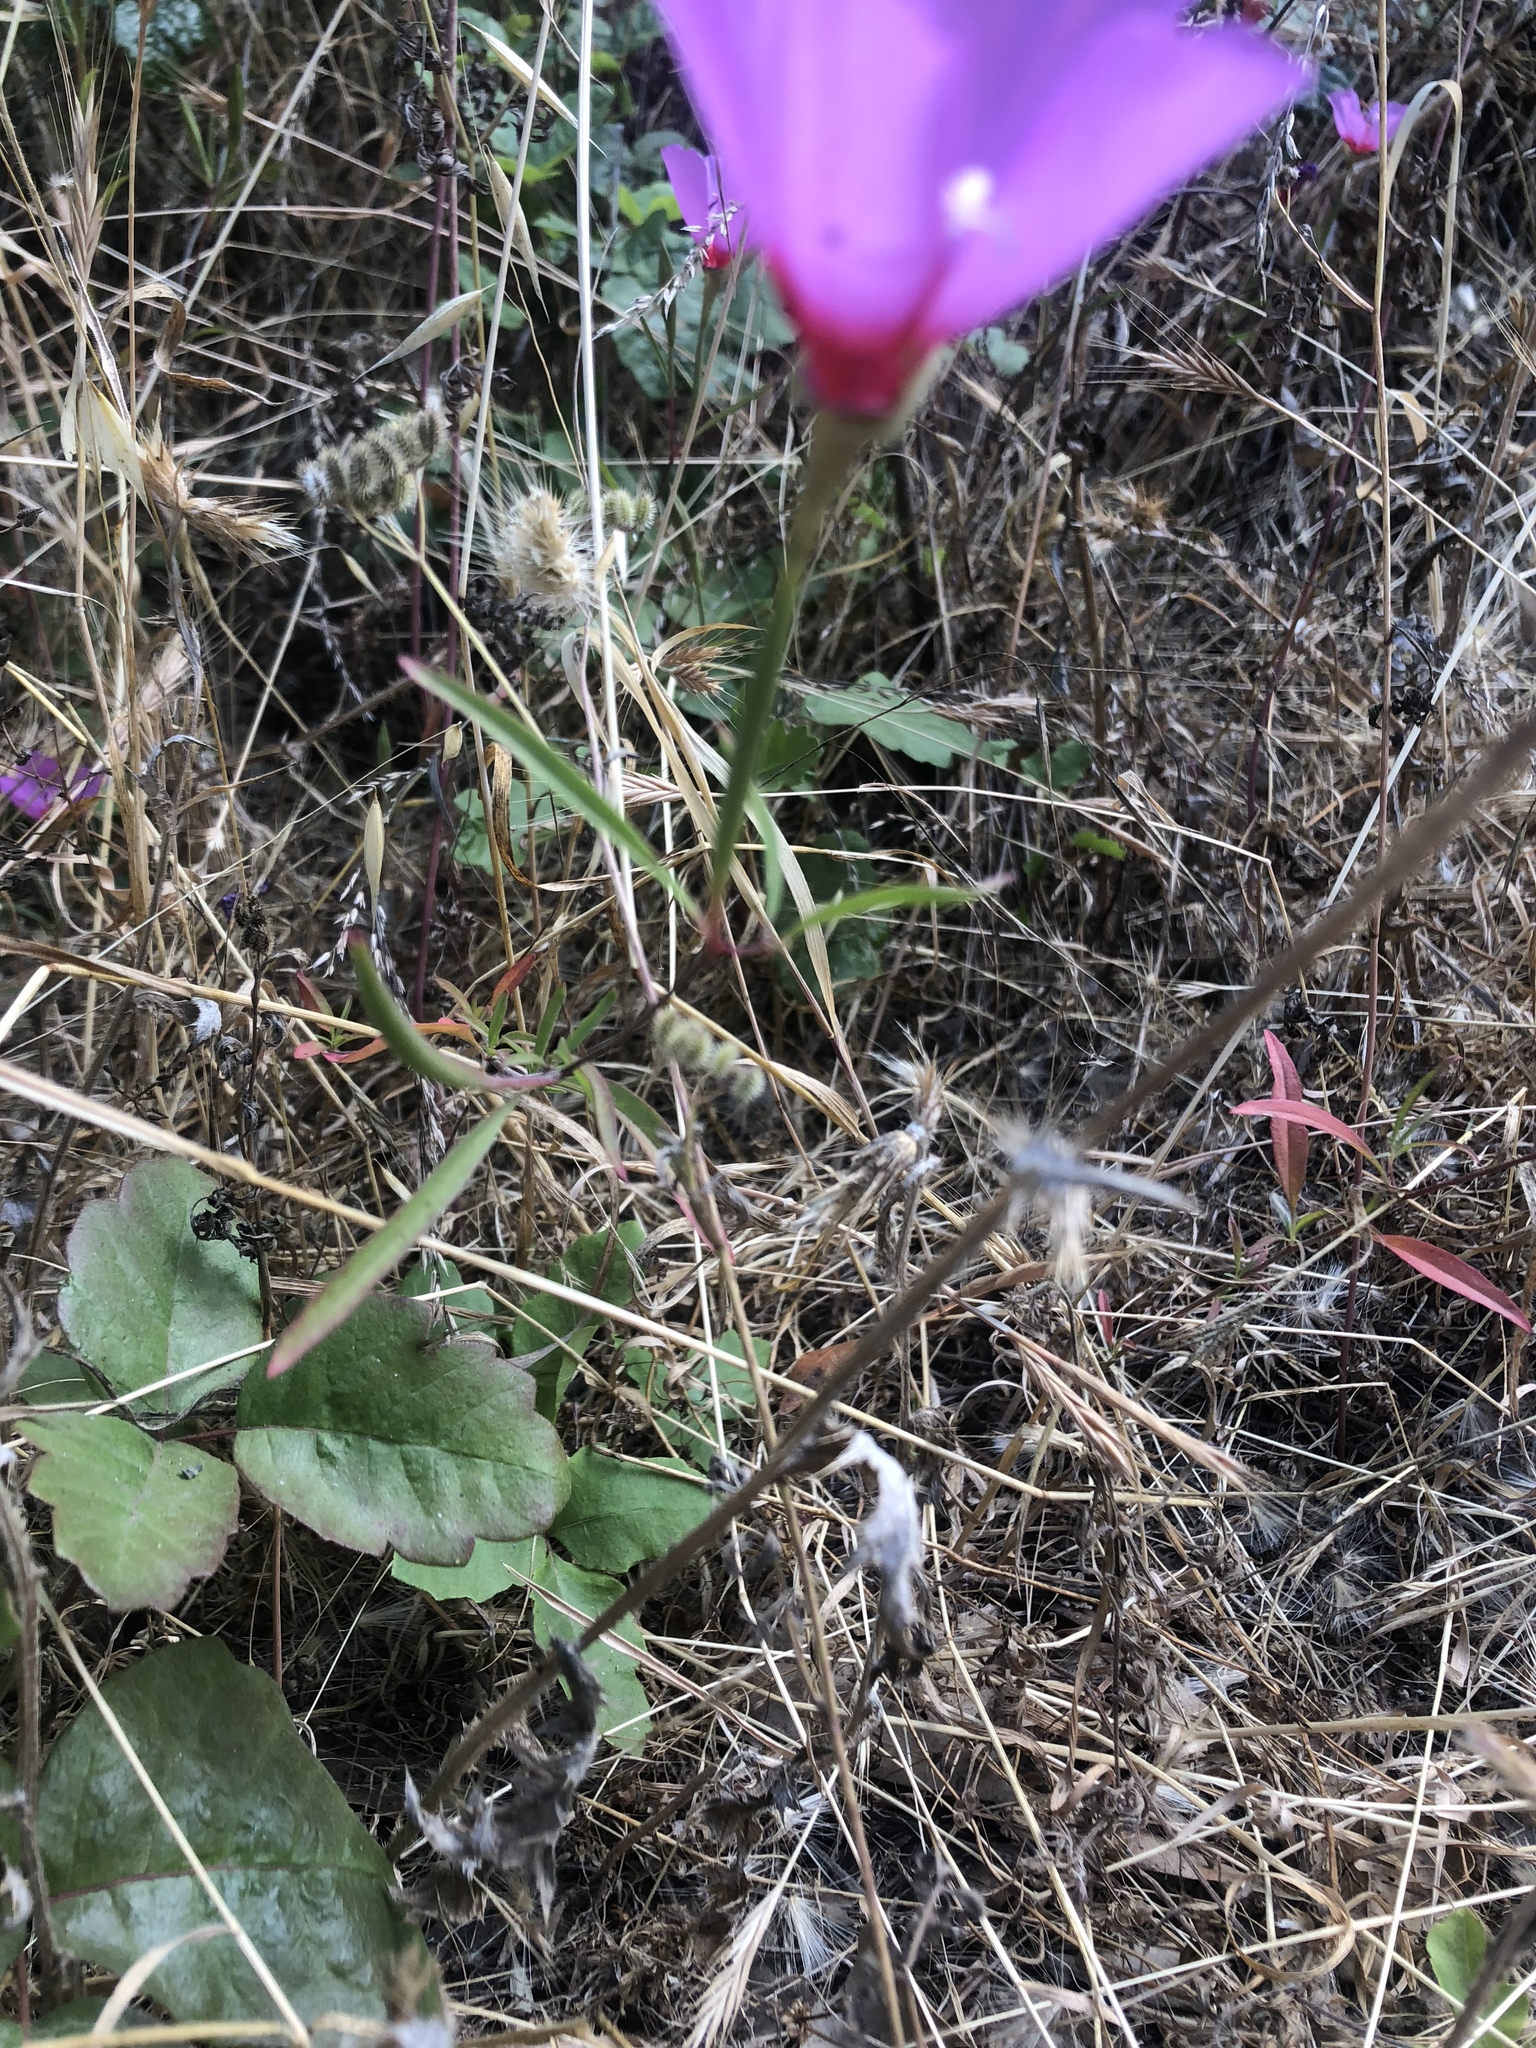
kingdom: Plantae
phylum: Tracheophyta
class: Magnoliopsida
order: Myrtales
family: Onagraceae
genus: Clarkia
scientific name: Clarkia rubicunda
